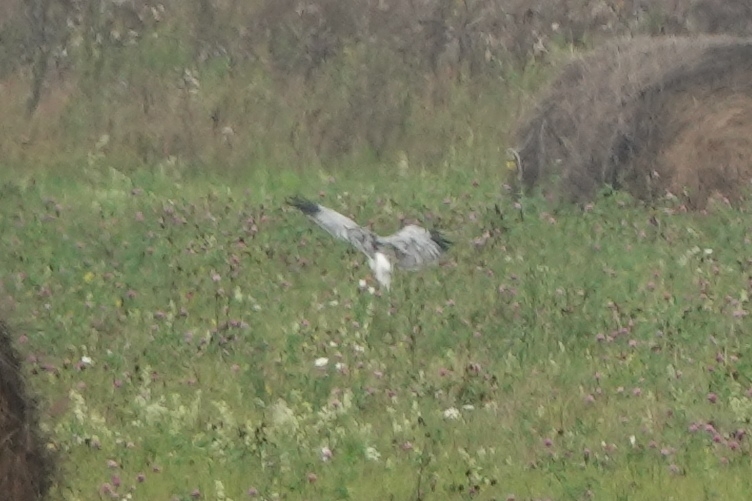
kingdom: Animalia
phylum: Chordata
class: Aves
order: Accipitriformes
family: Accipitridae
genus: Circus
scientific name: Circus cyaneus
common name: Hen harrier
